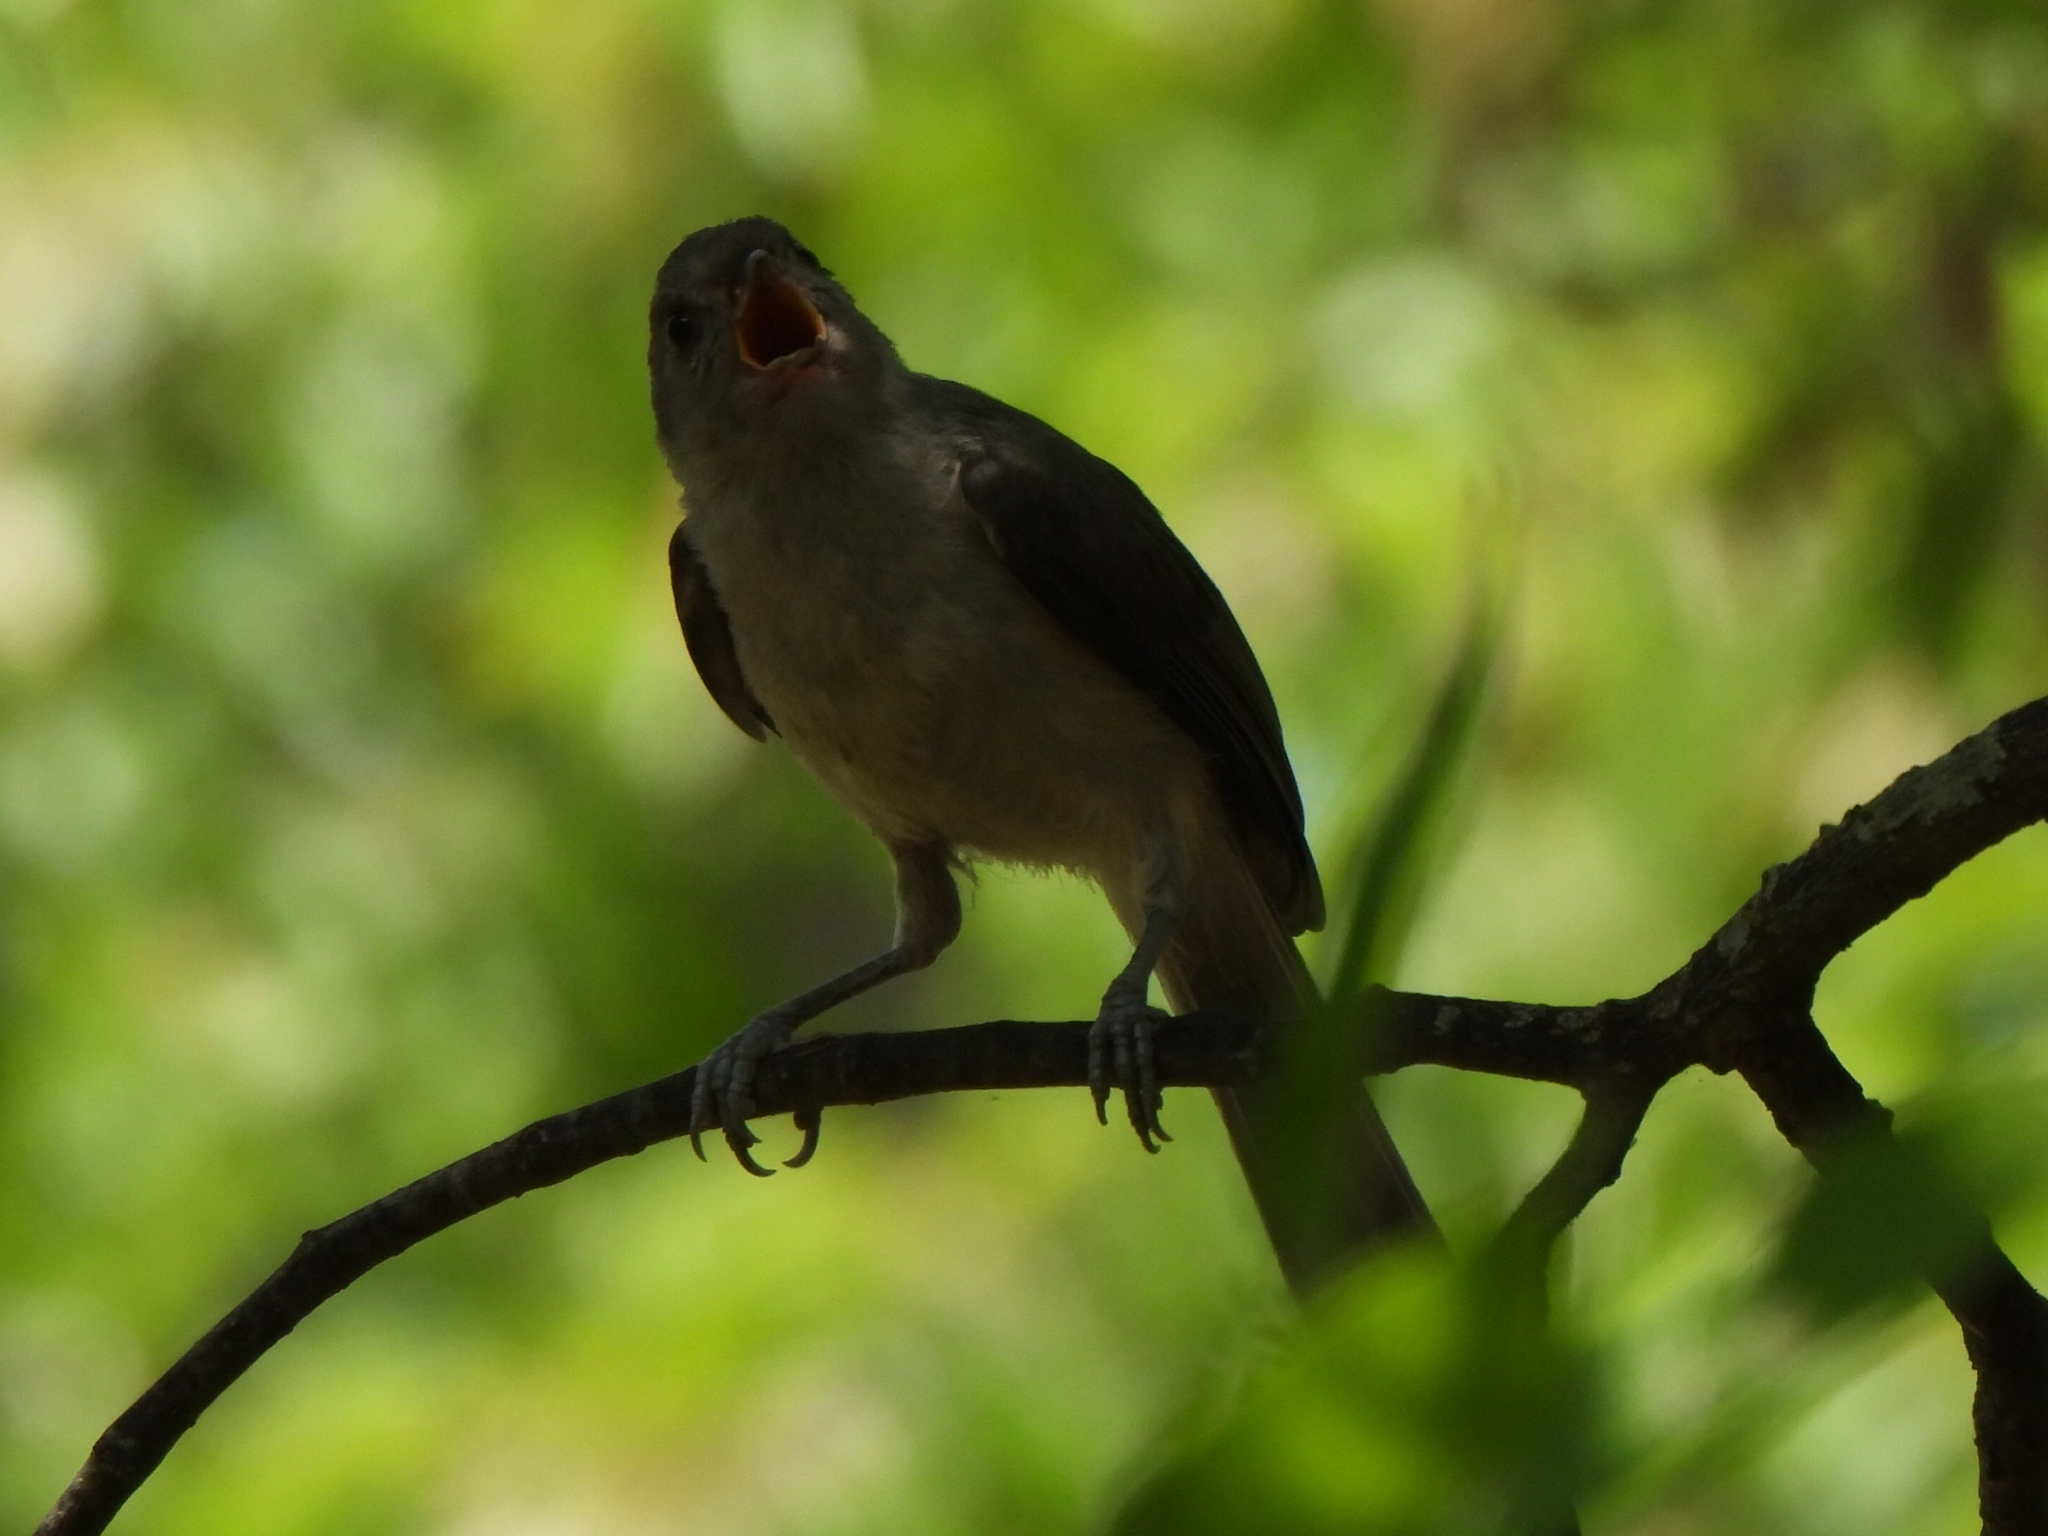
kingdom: Animalia
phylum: Chordata
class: Aves
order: Passeriformes
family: Paridae
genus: Baeolophus
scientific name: Baeolophus bicolor
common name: Tufted titmouse
